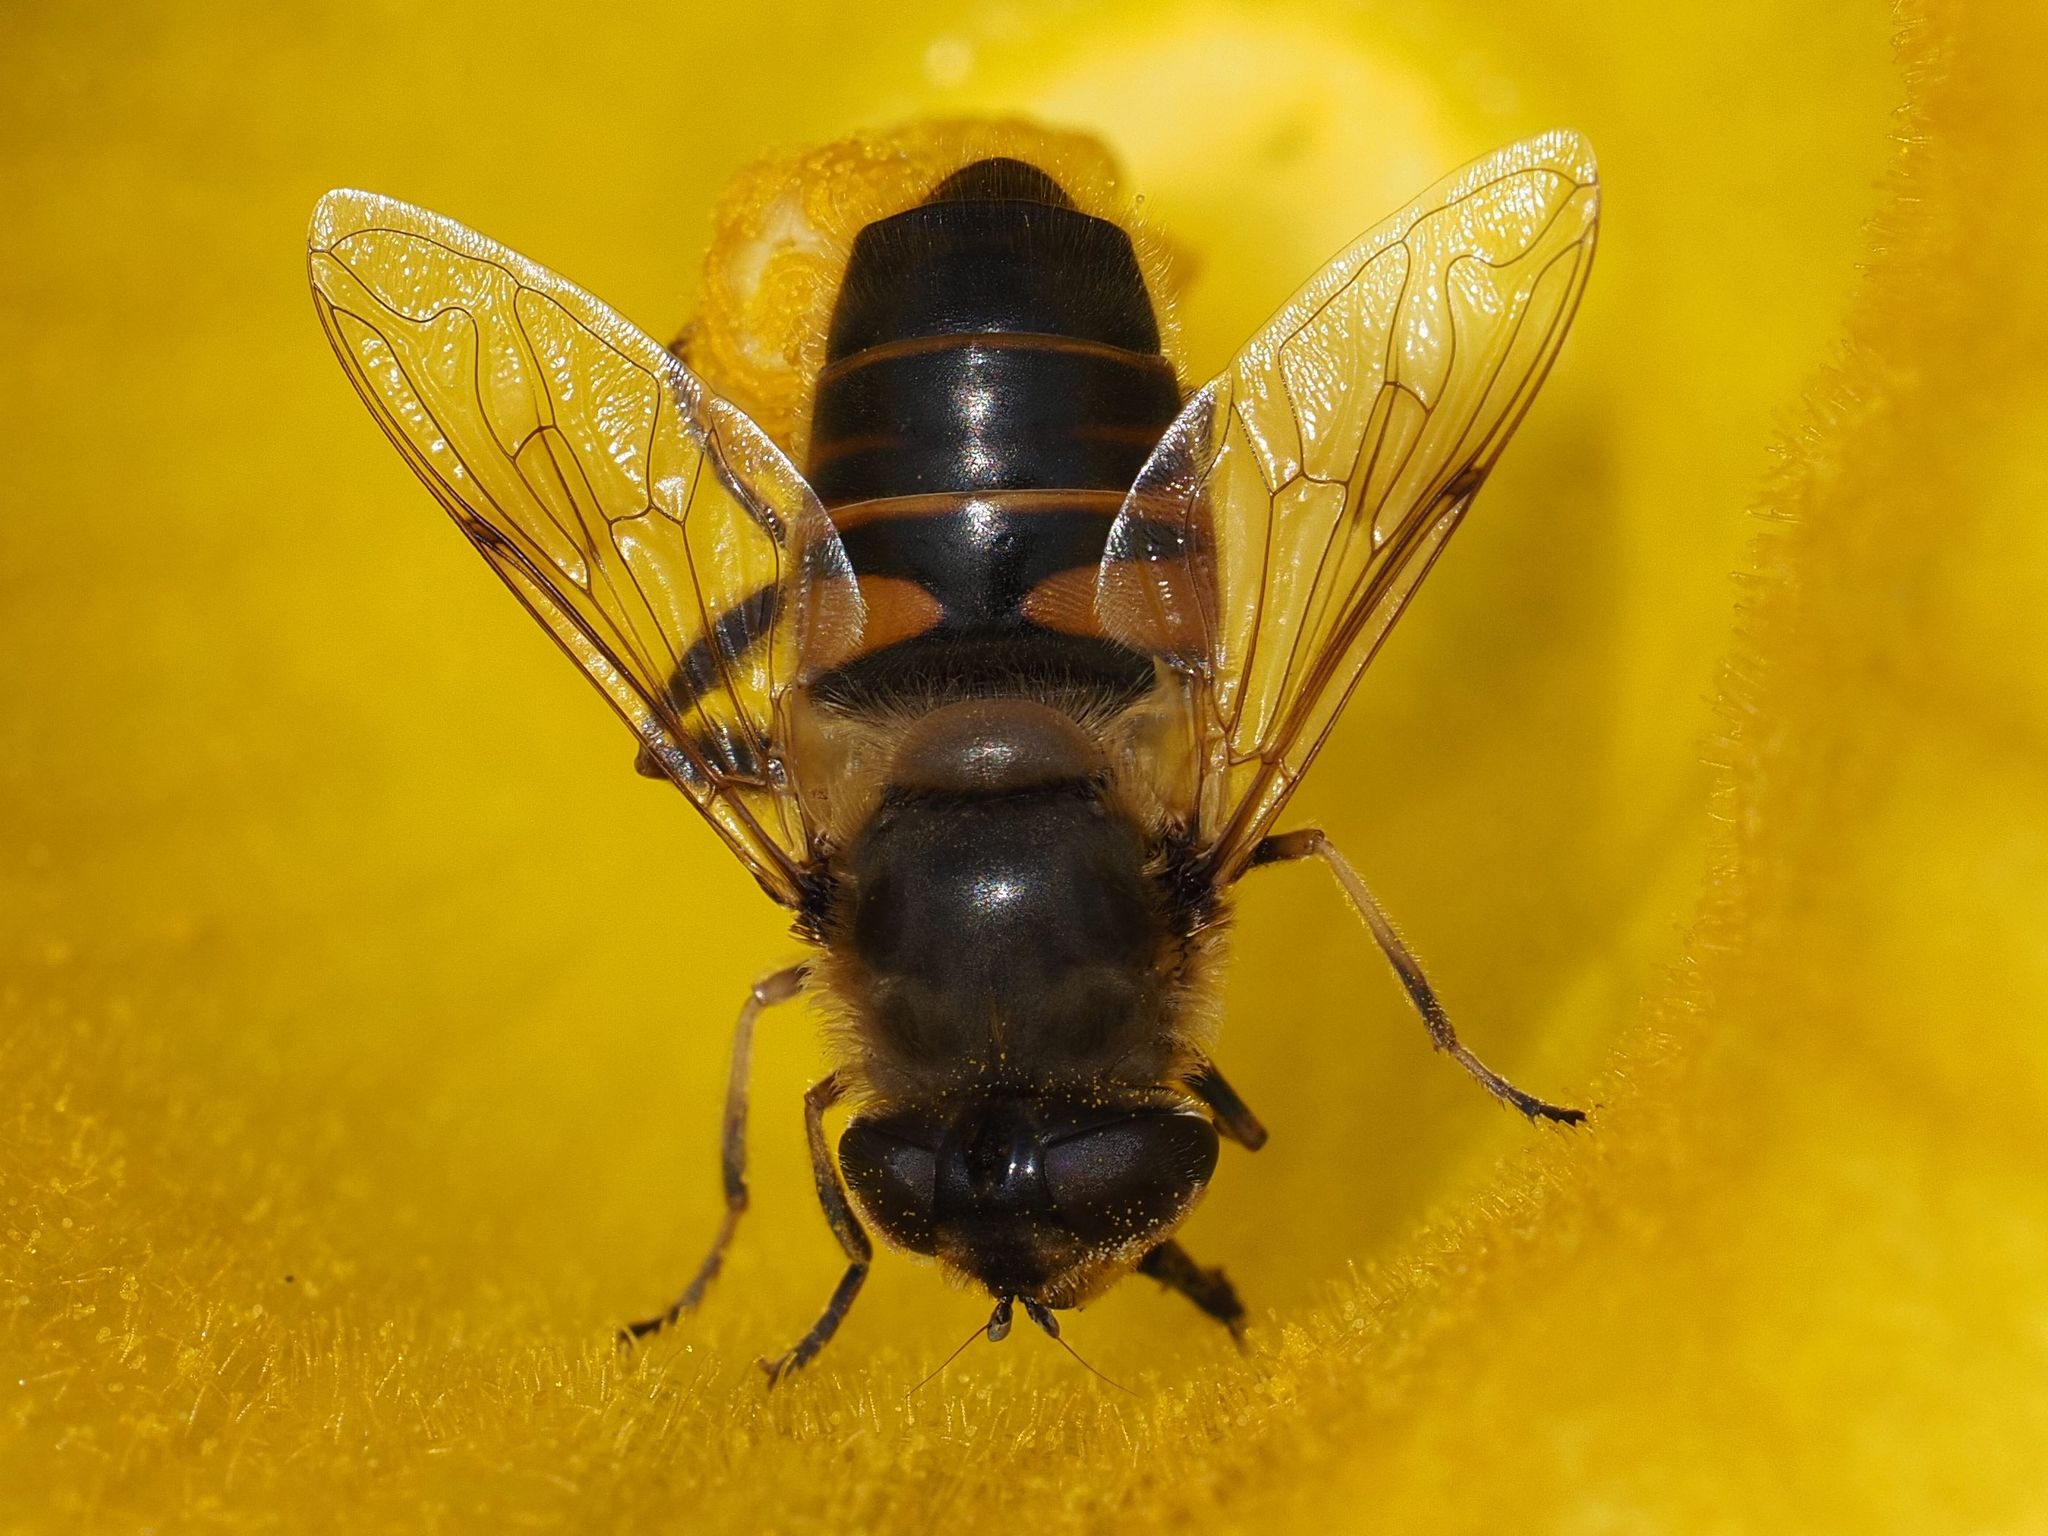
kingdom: Animalia
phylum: Arthropoda
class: Insecta
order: Diptera
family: Syrphidae
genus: Eristalis
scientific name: Eristalis tenax
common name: Drone fly
